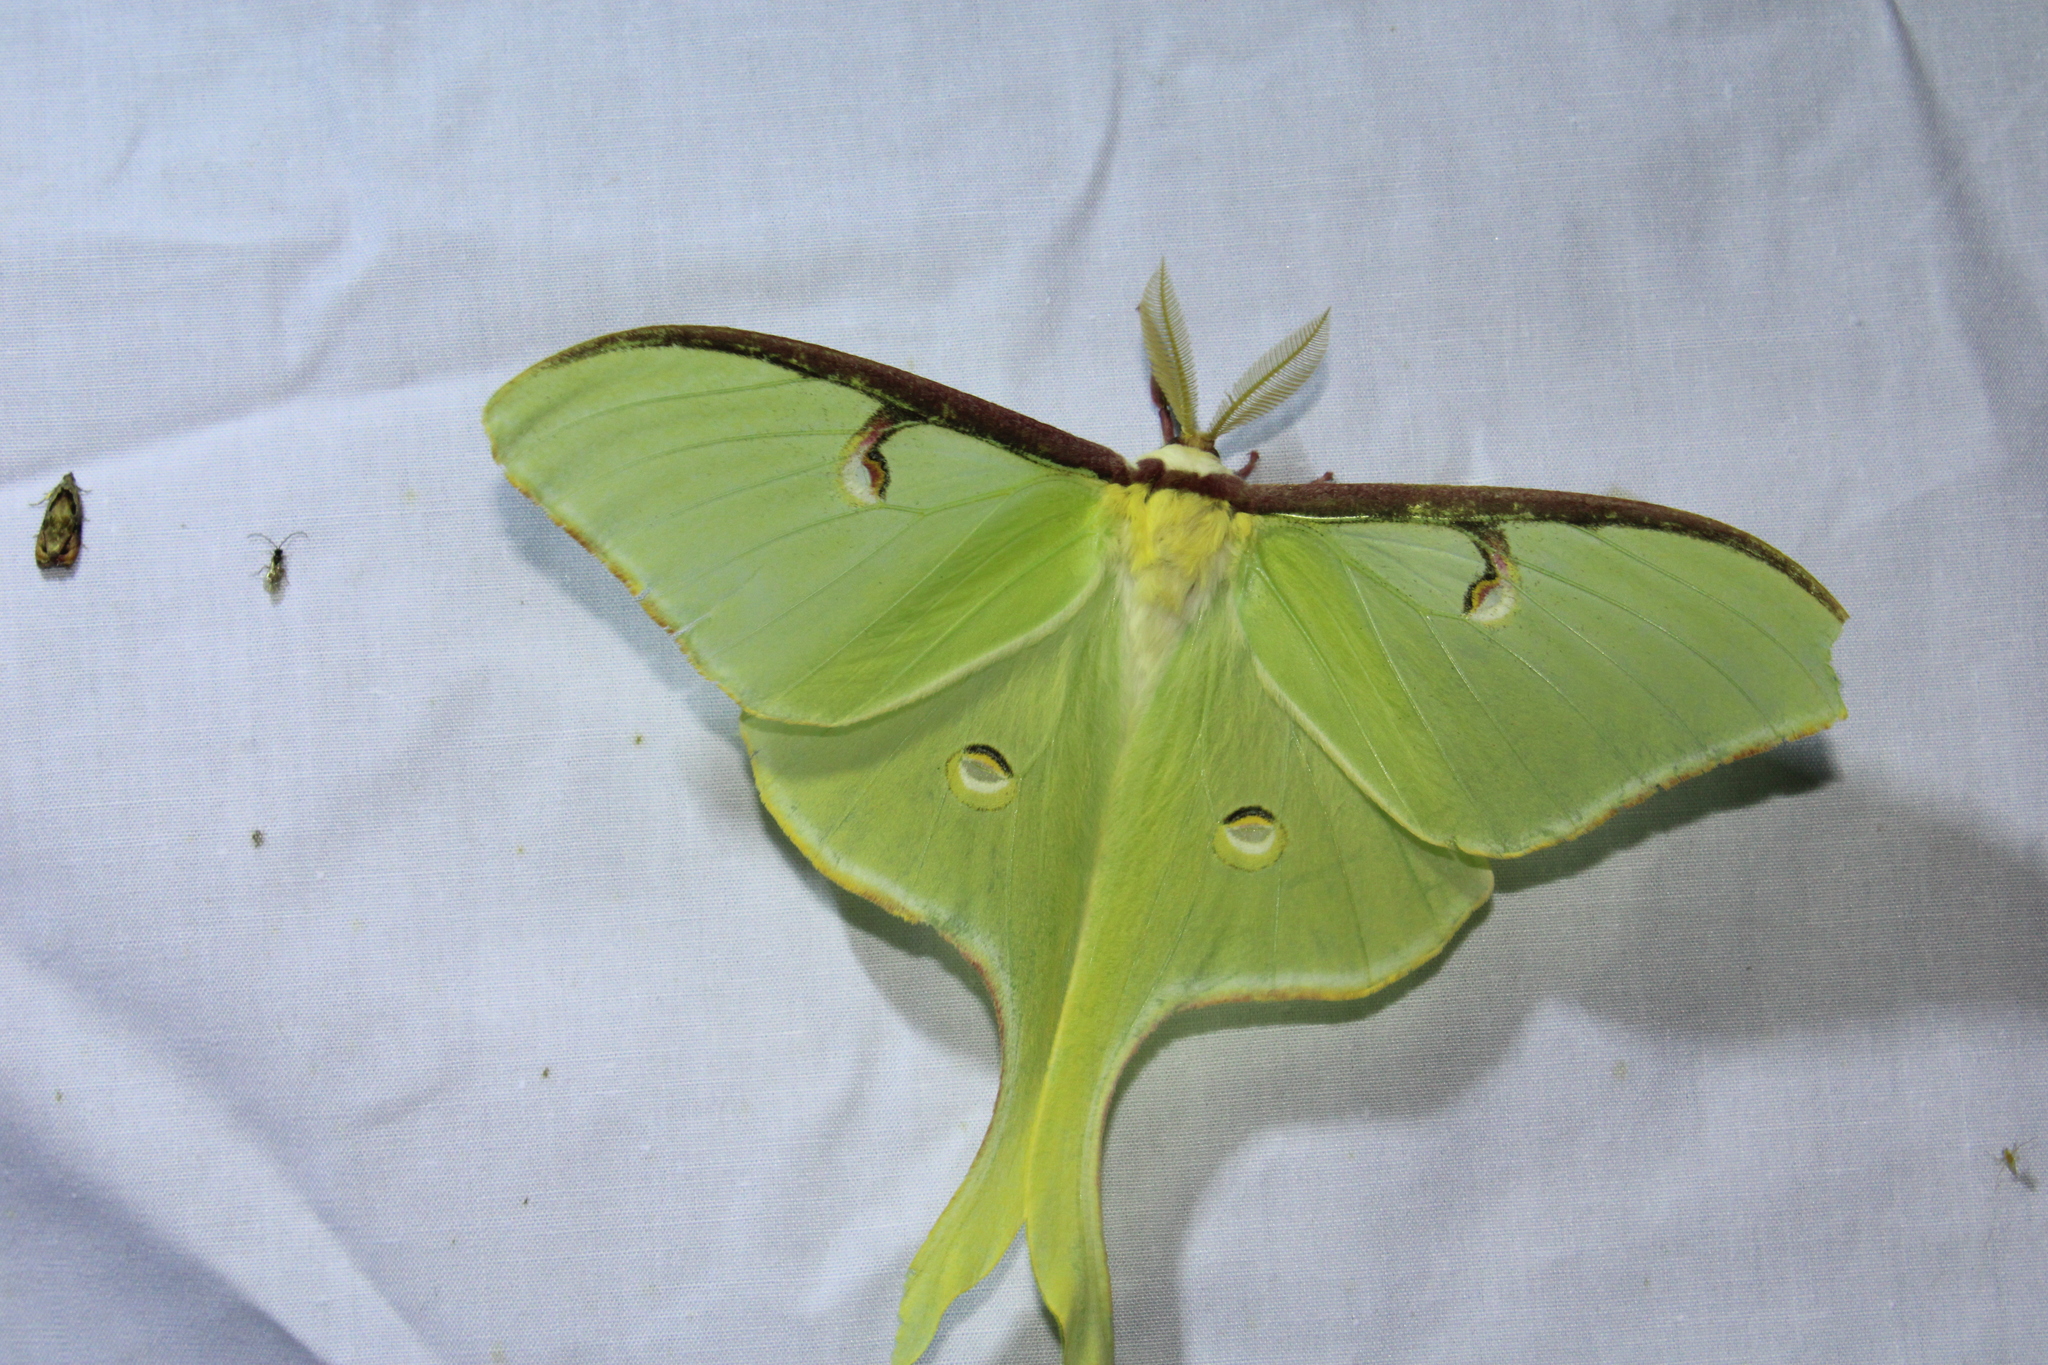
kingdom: Animalia
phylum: Arthropoda
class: Insecta
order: Lepidoptera
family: Saturniidae
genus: Actias
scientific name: Actias luna
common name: Luna moth
